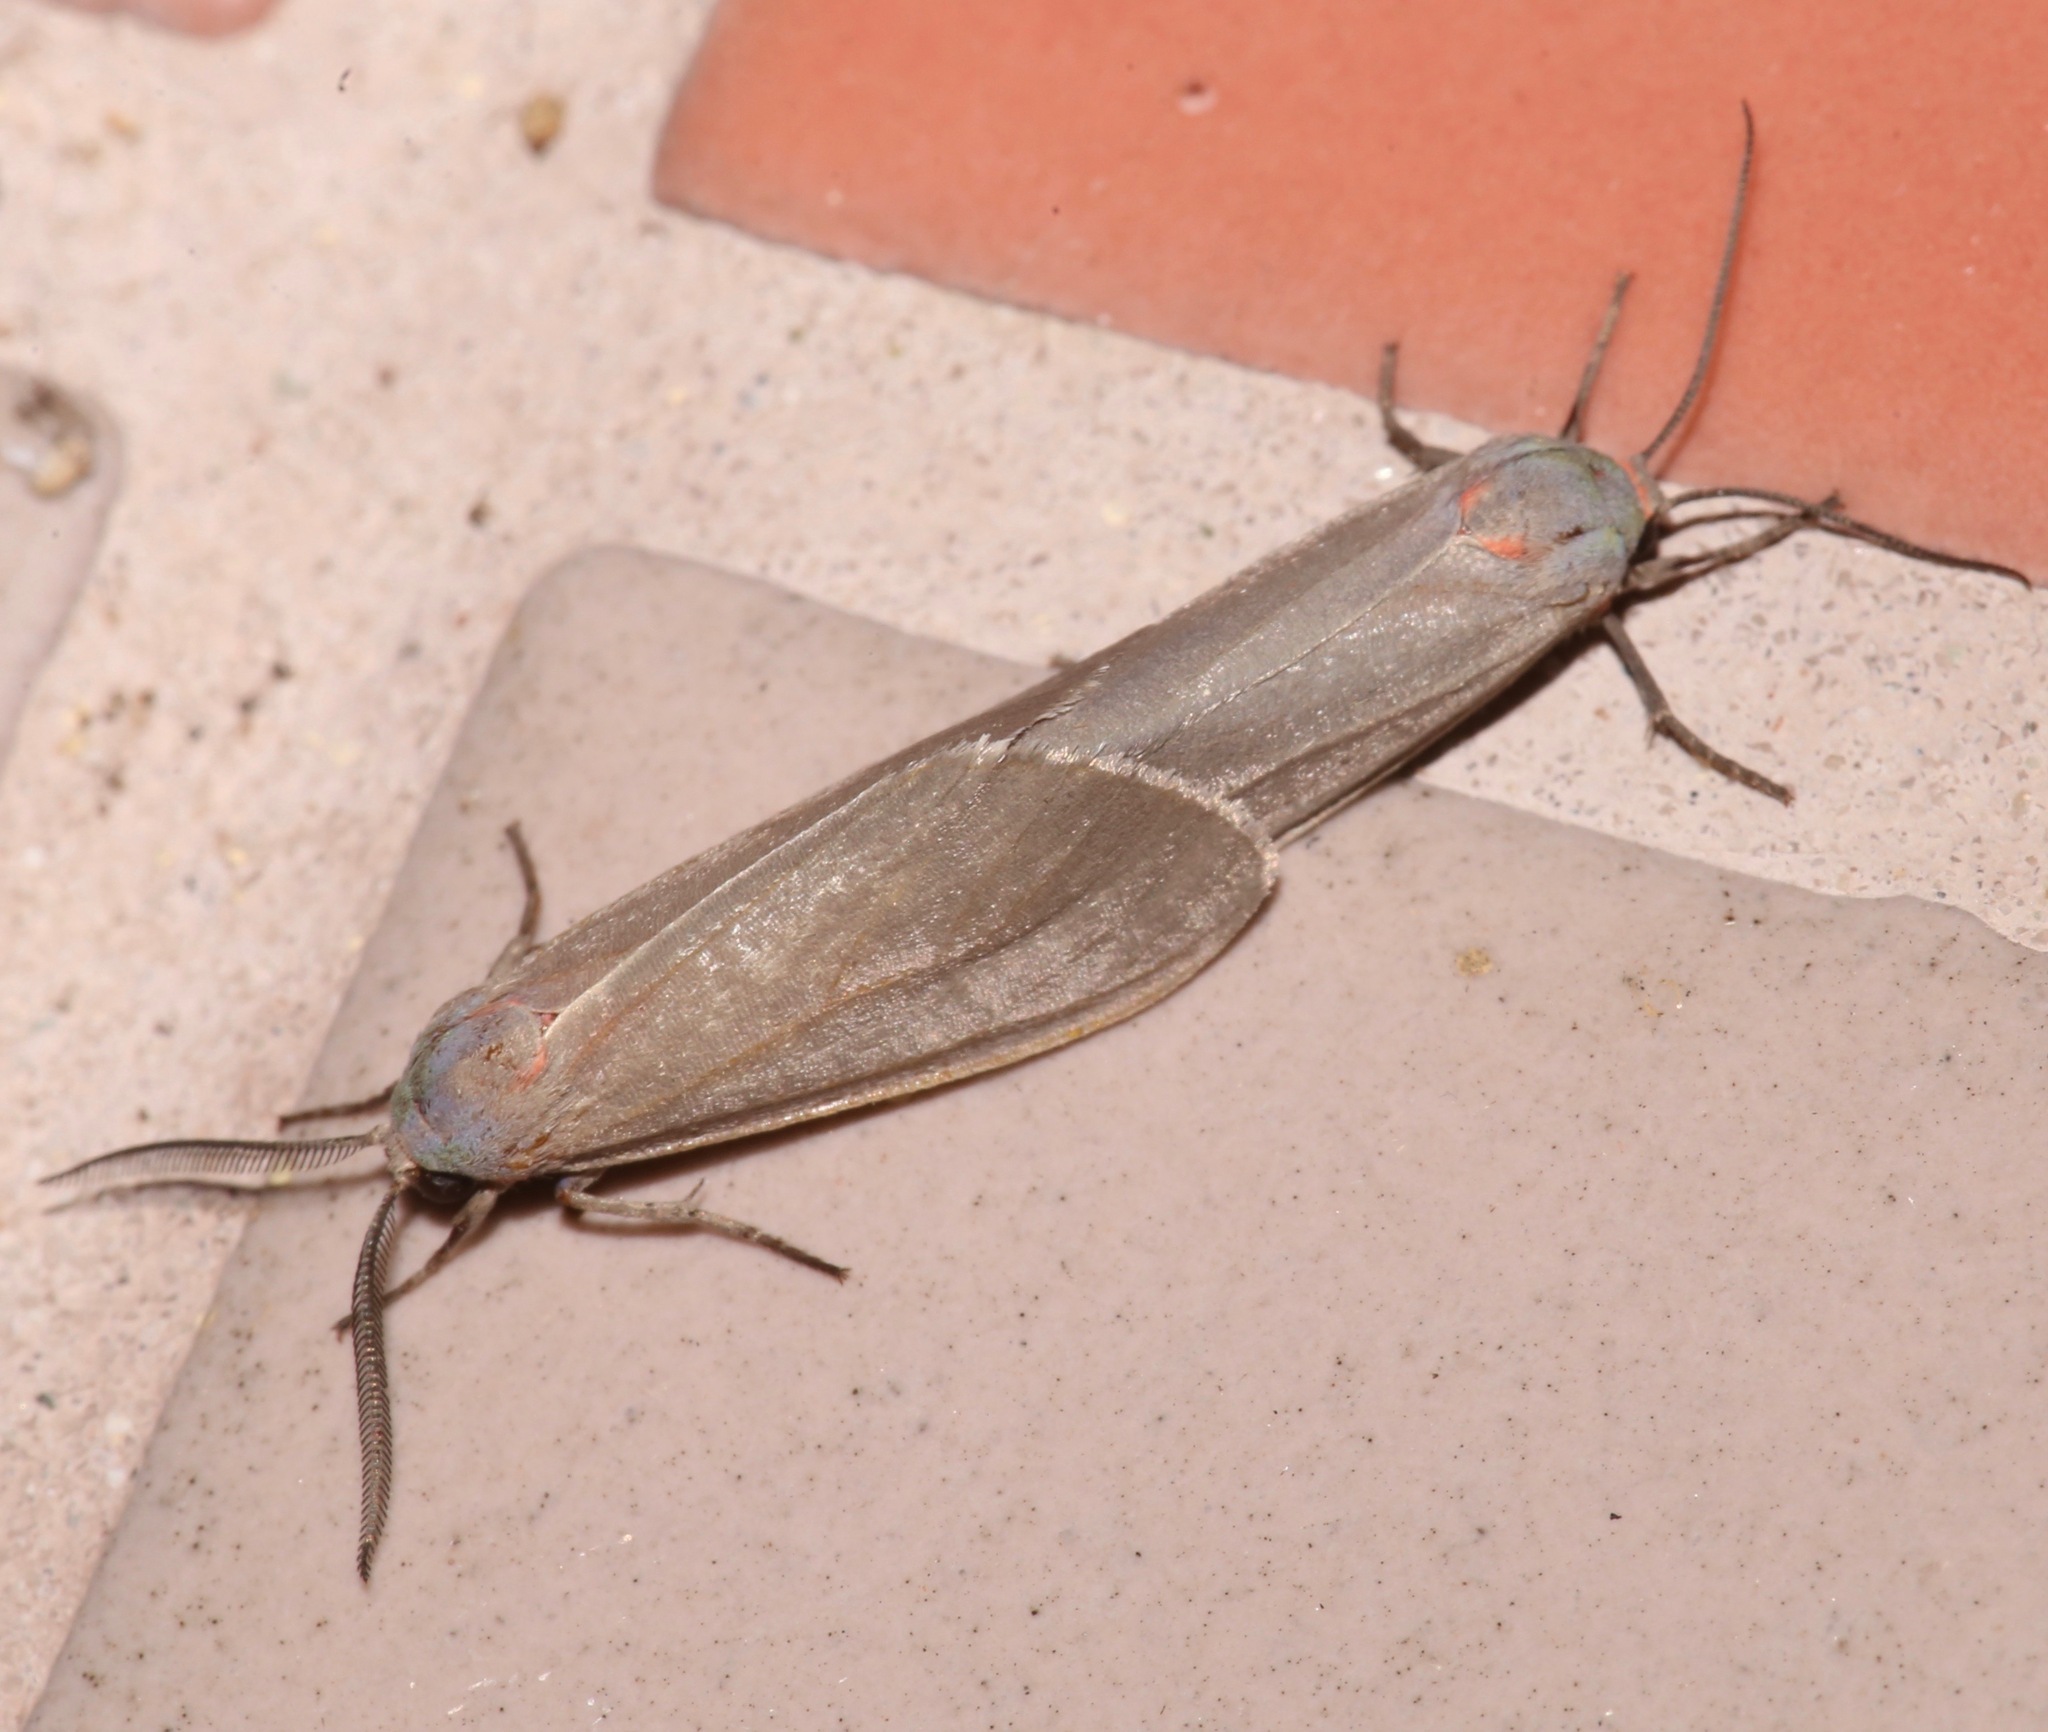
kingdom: Animalia
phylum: Arthropoda
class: Insecta
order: Lepidoptera
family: Erebidae
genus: Pygarctia
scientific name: Pygarctia murina
